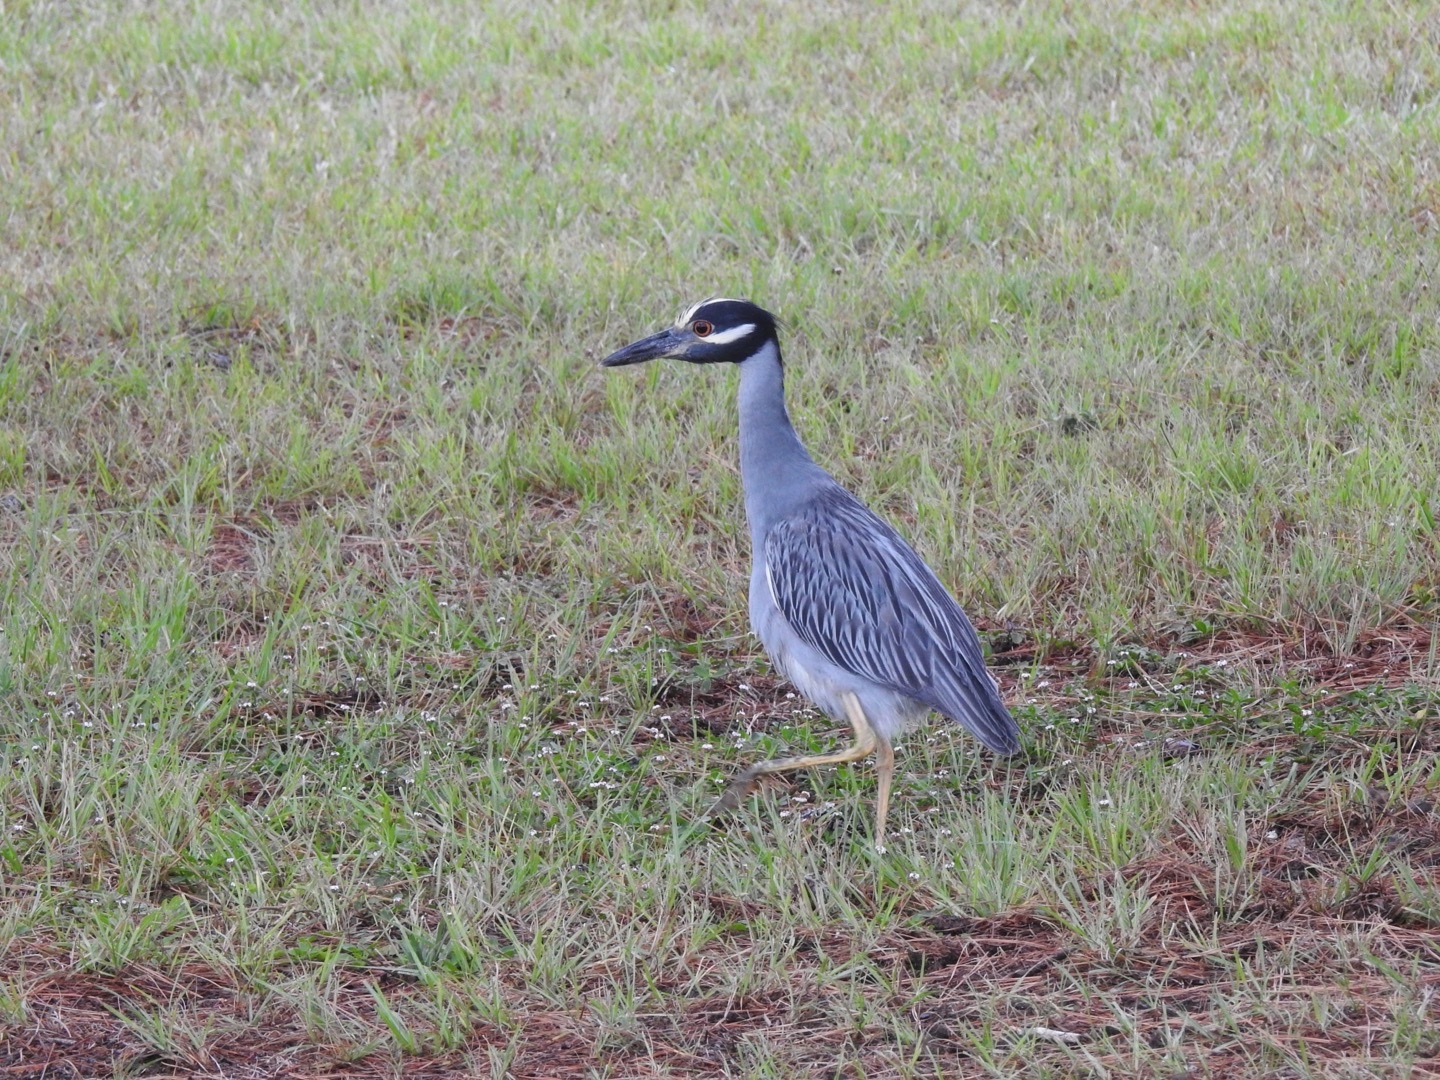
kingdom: Animalia
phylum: Chordata
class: Aves
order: Pelecaniformes
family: Ardeidae
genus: Nyctanassa
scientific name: Nyctanassa violacea
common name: Yellow-crowned night heron
